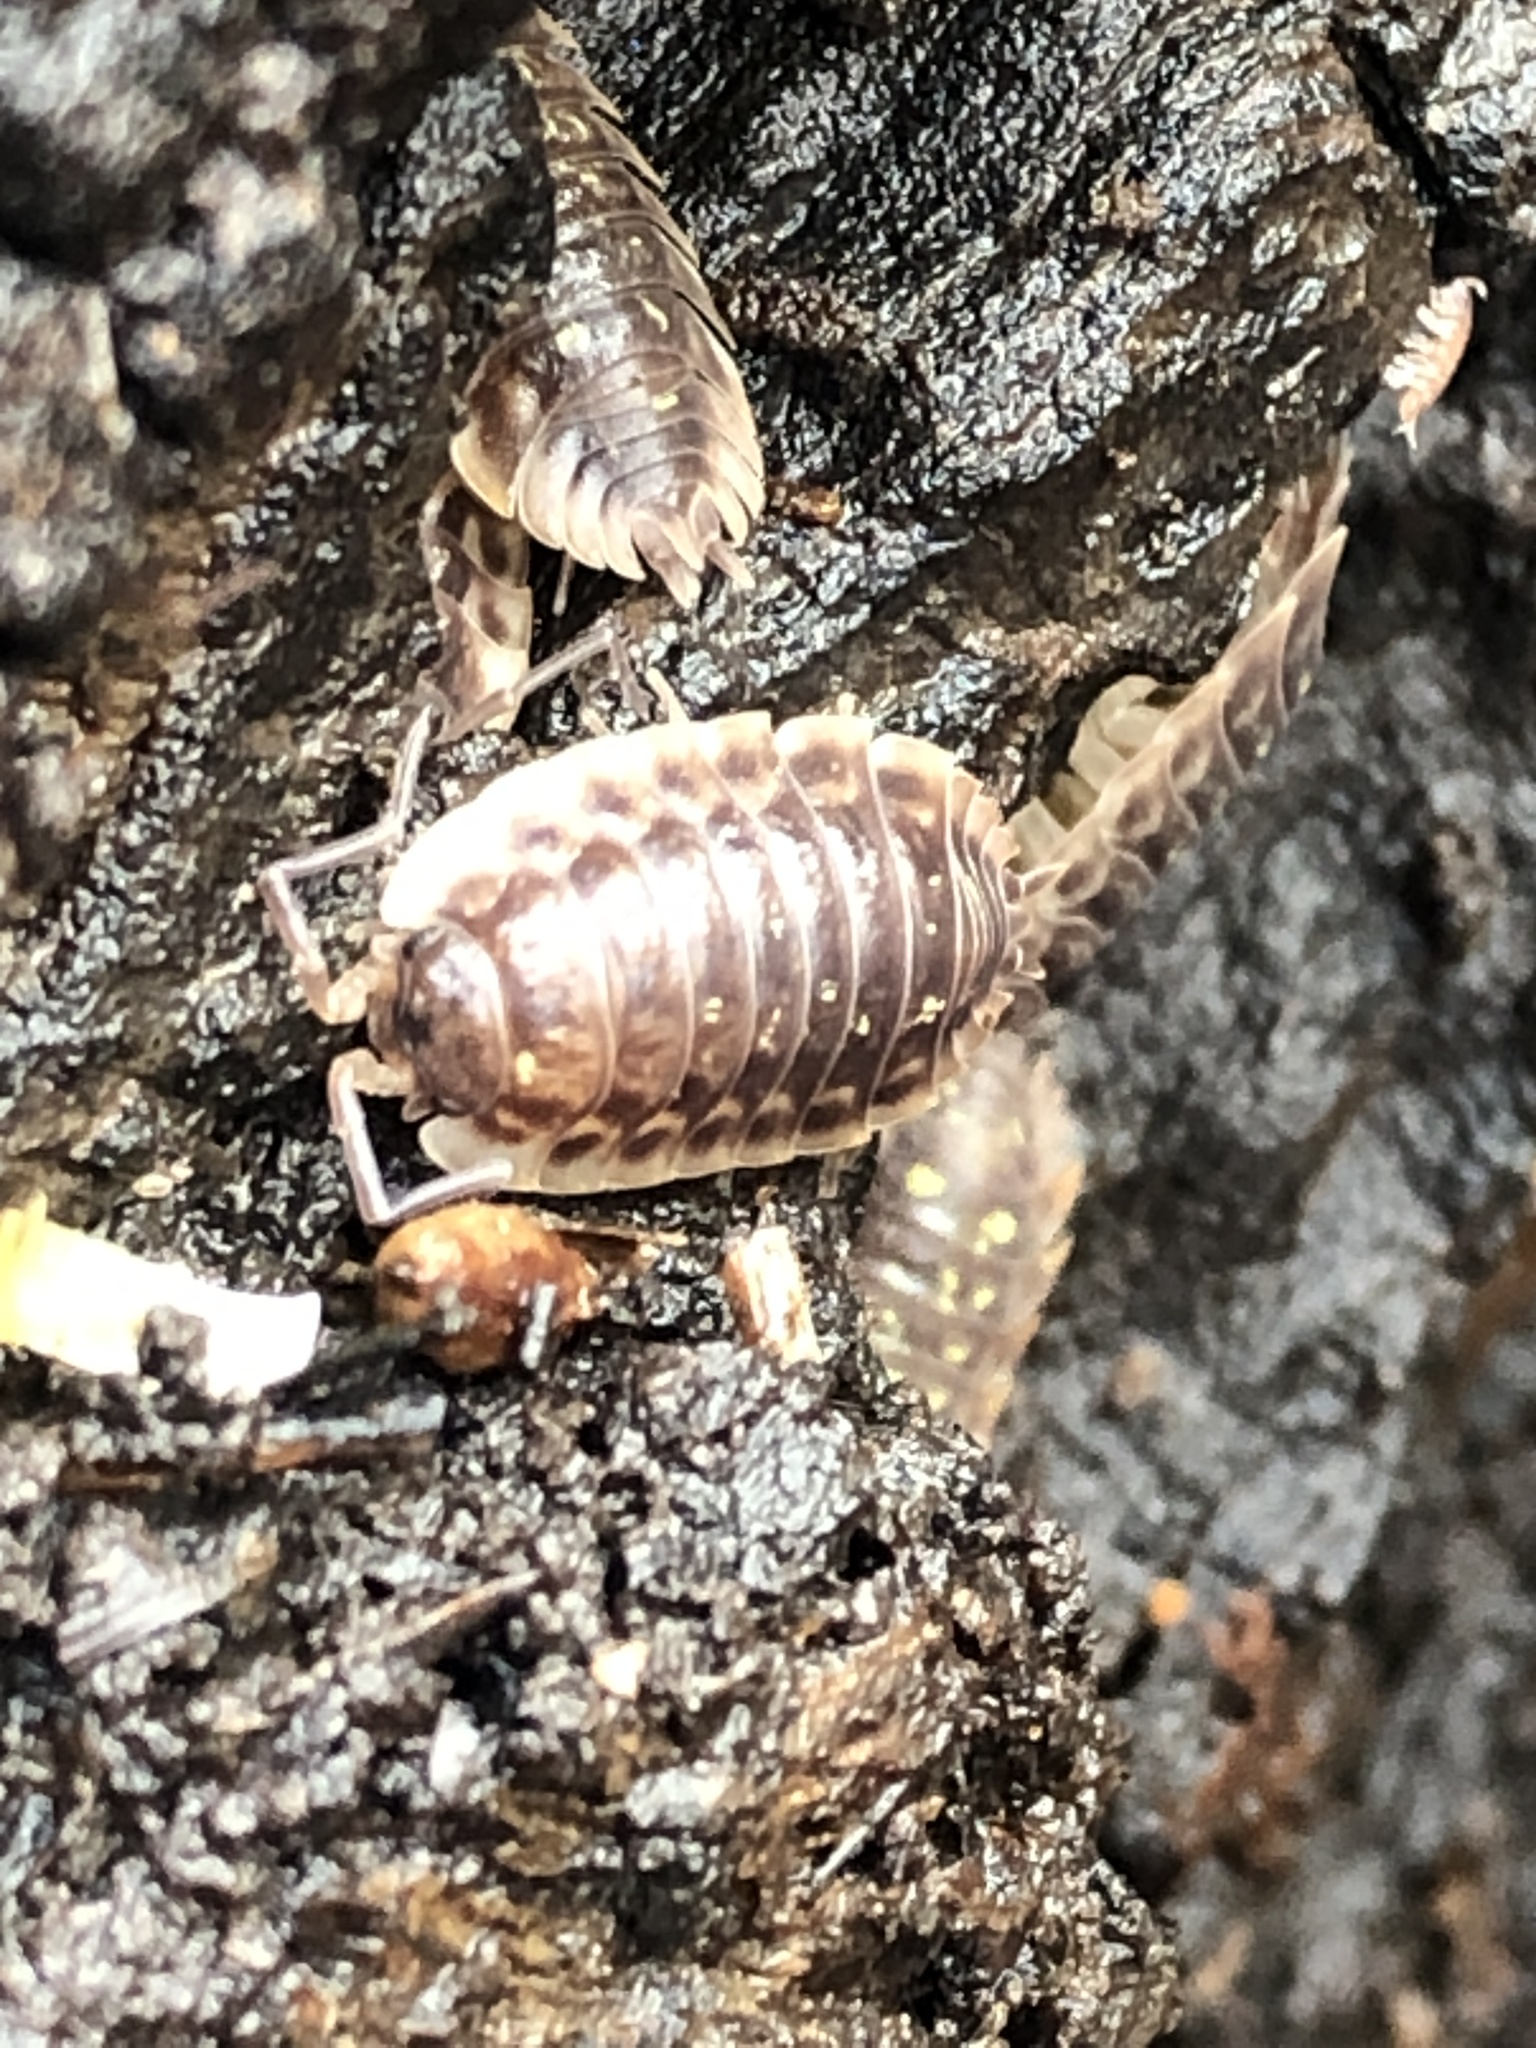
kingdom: Animalia
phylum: Arthropoda
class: Malacostraca
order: Isopoda
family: Oniscidae
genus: Oniscus
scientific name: Oniscus asellus
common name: Common shiny woodlouse
